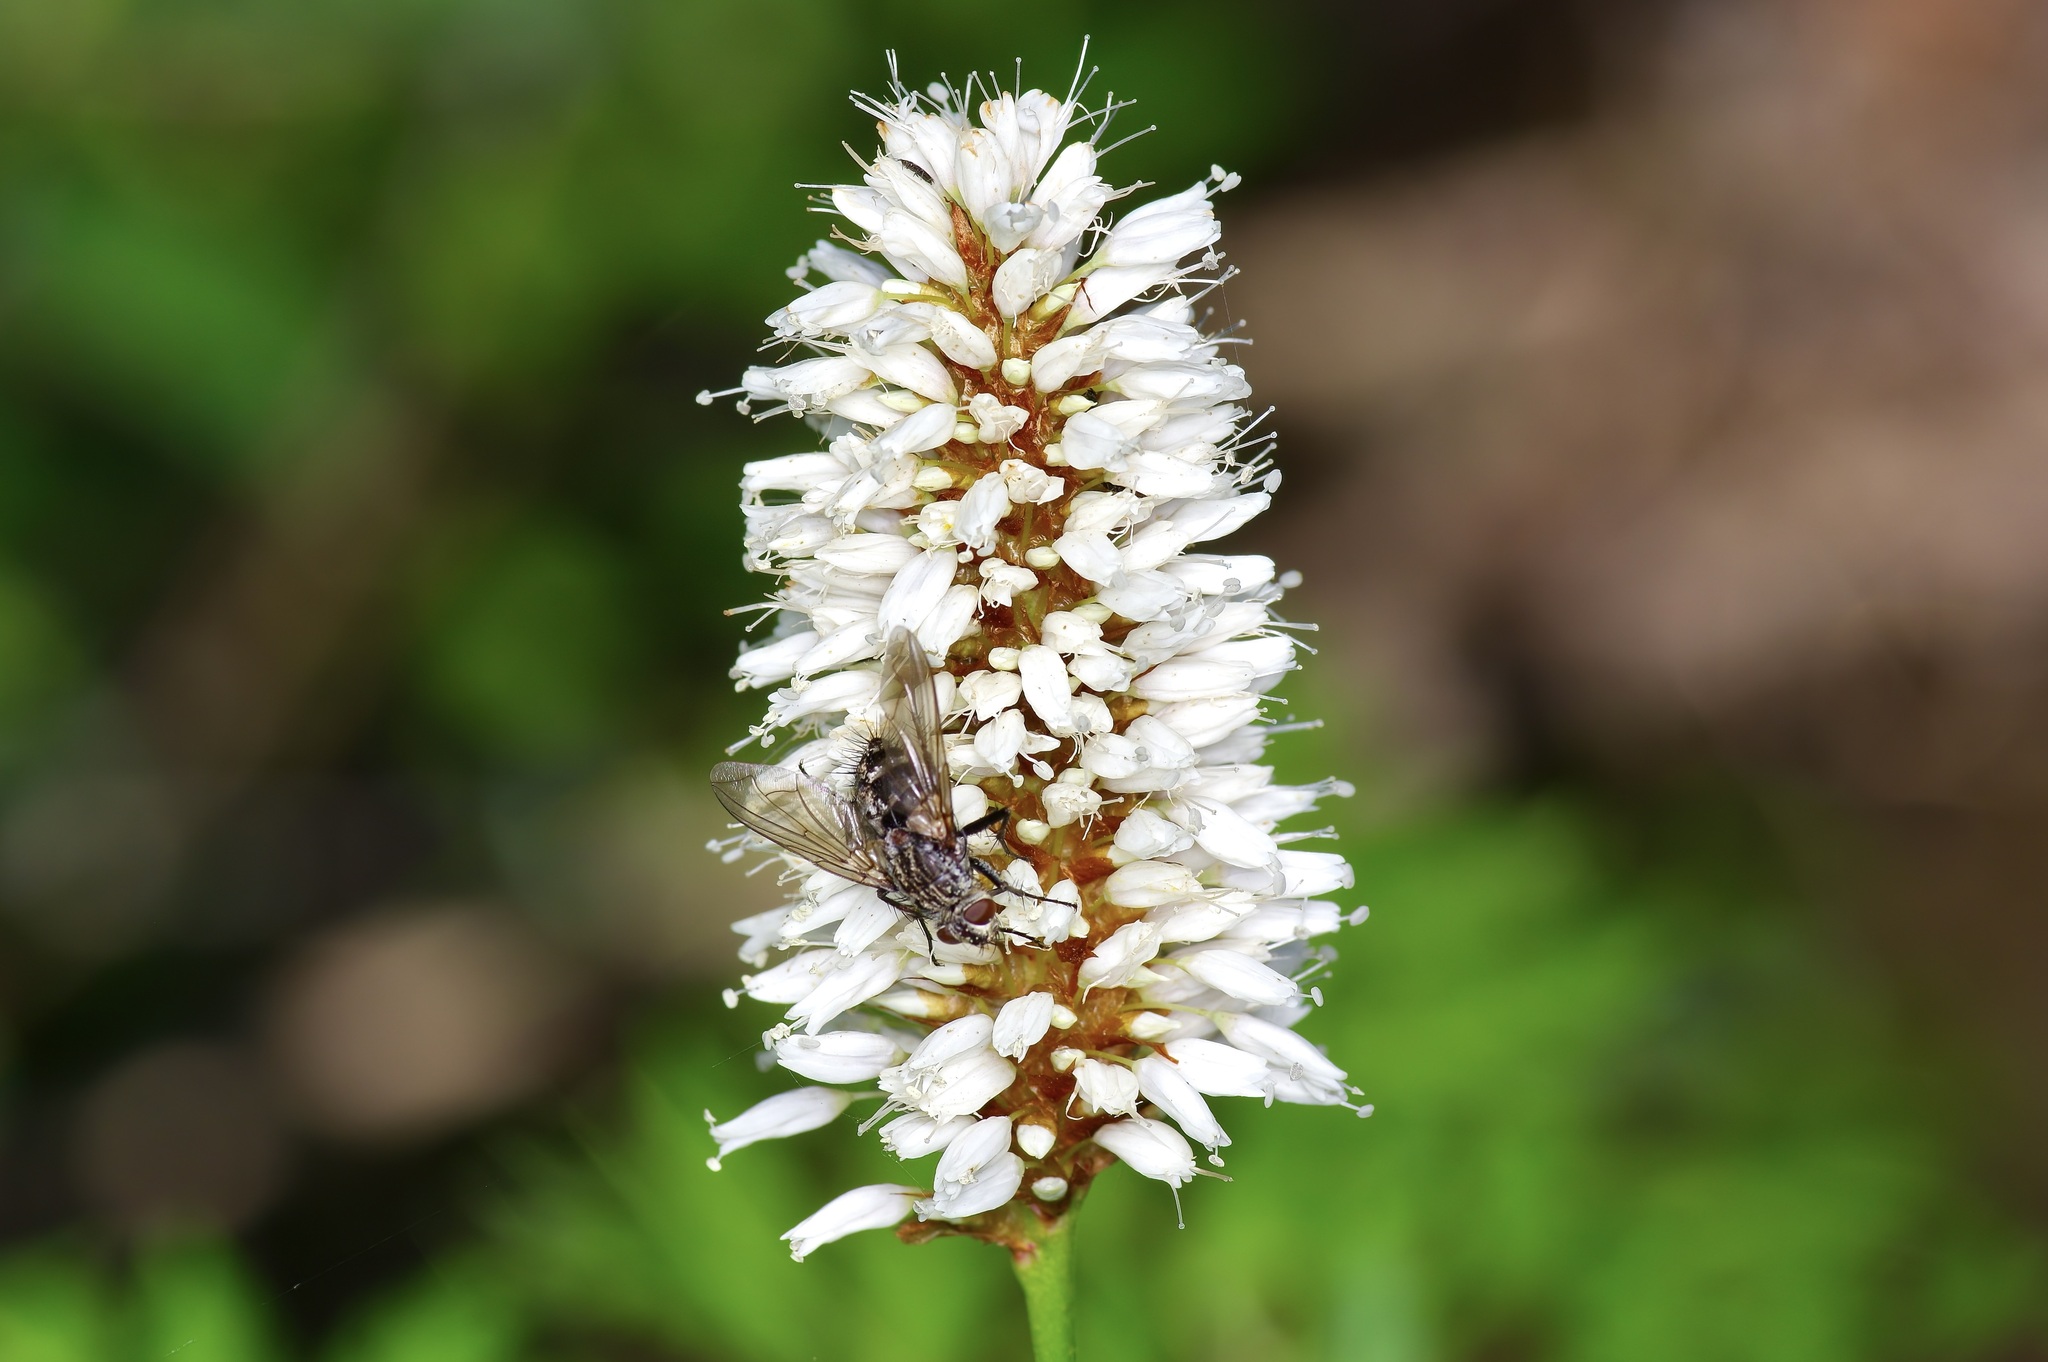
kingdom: Plantae
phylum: Tracheophyta
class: Magnoliopsida
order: Caryophyllales
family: Polygonaceae
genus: Bistorta
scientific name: Bistorta bistortoides
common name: American bistort
